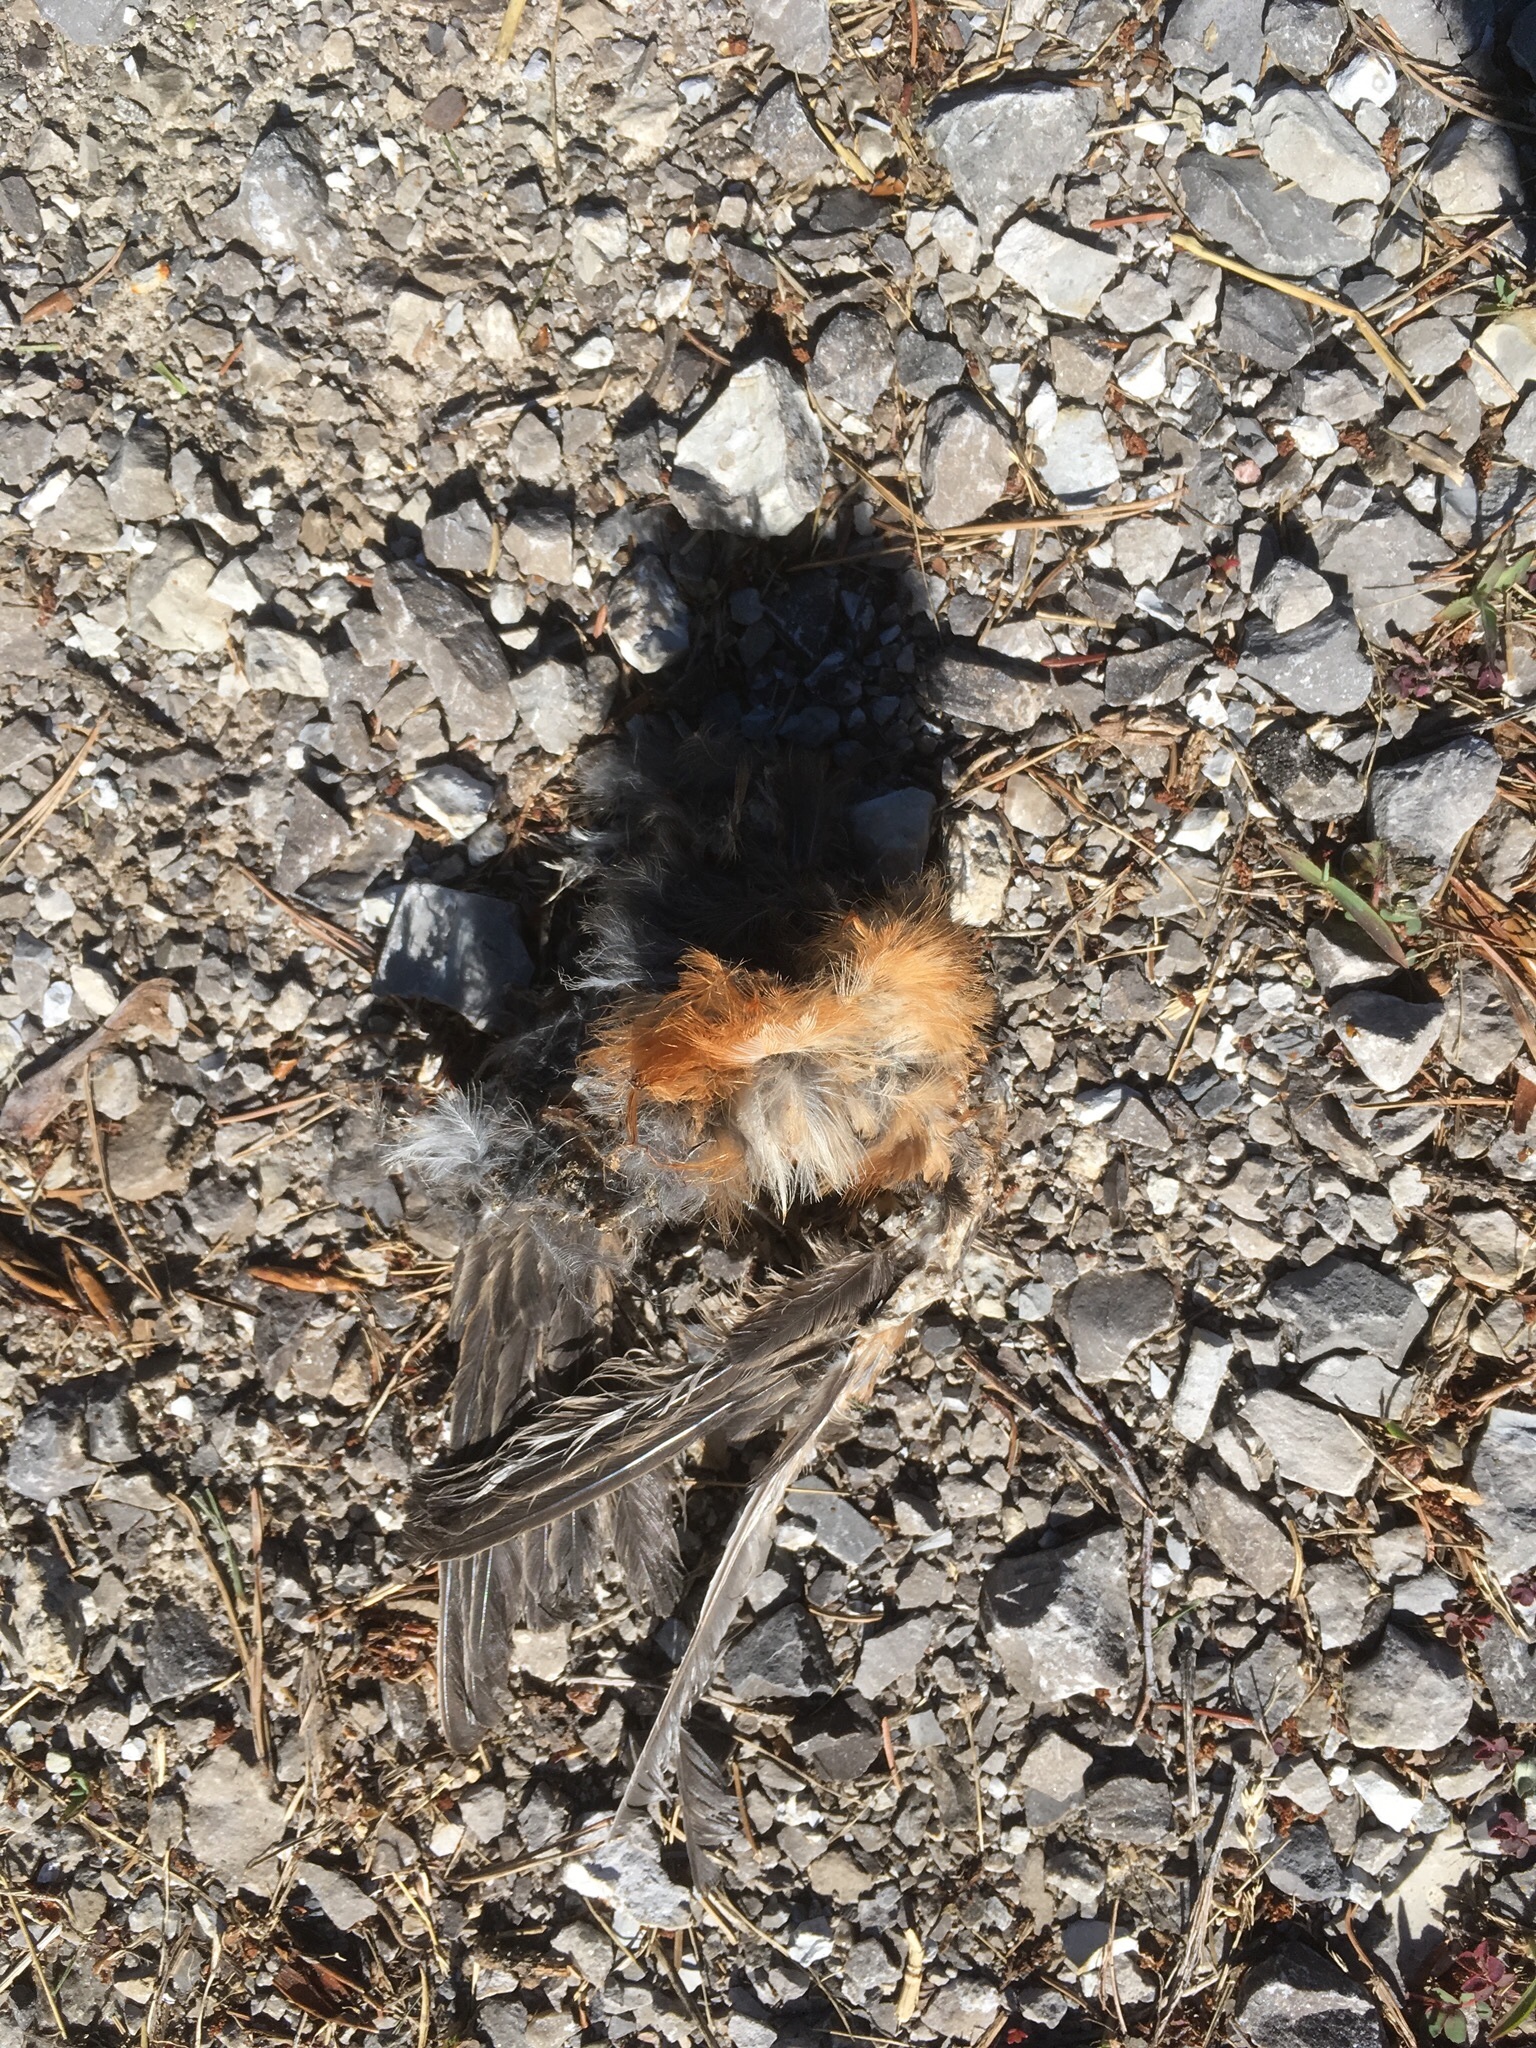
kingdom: Animalia
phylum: Chordata
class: Aves
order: Passeriformes
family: Turdidae
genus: Turdus
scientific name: Turdus migratorius
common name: American robin
